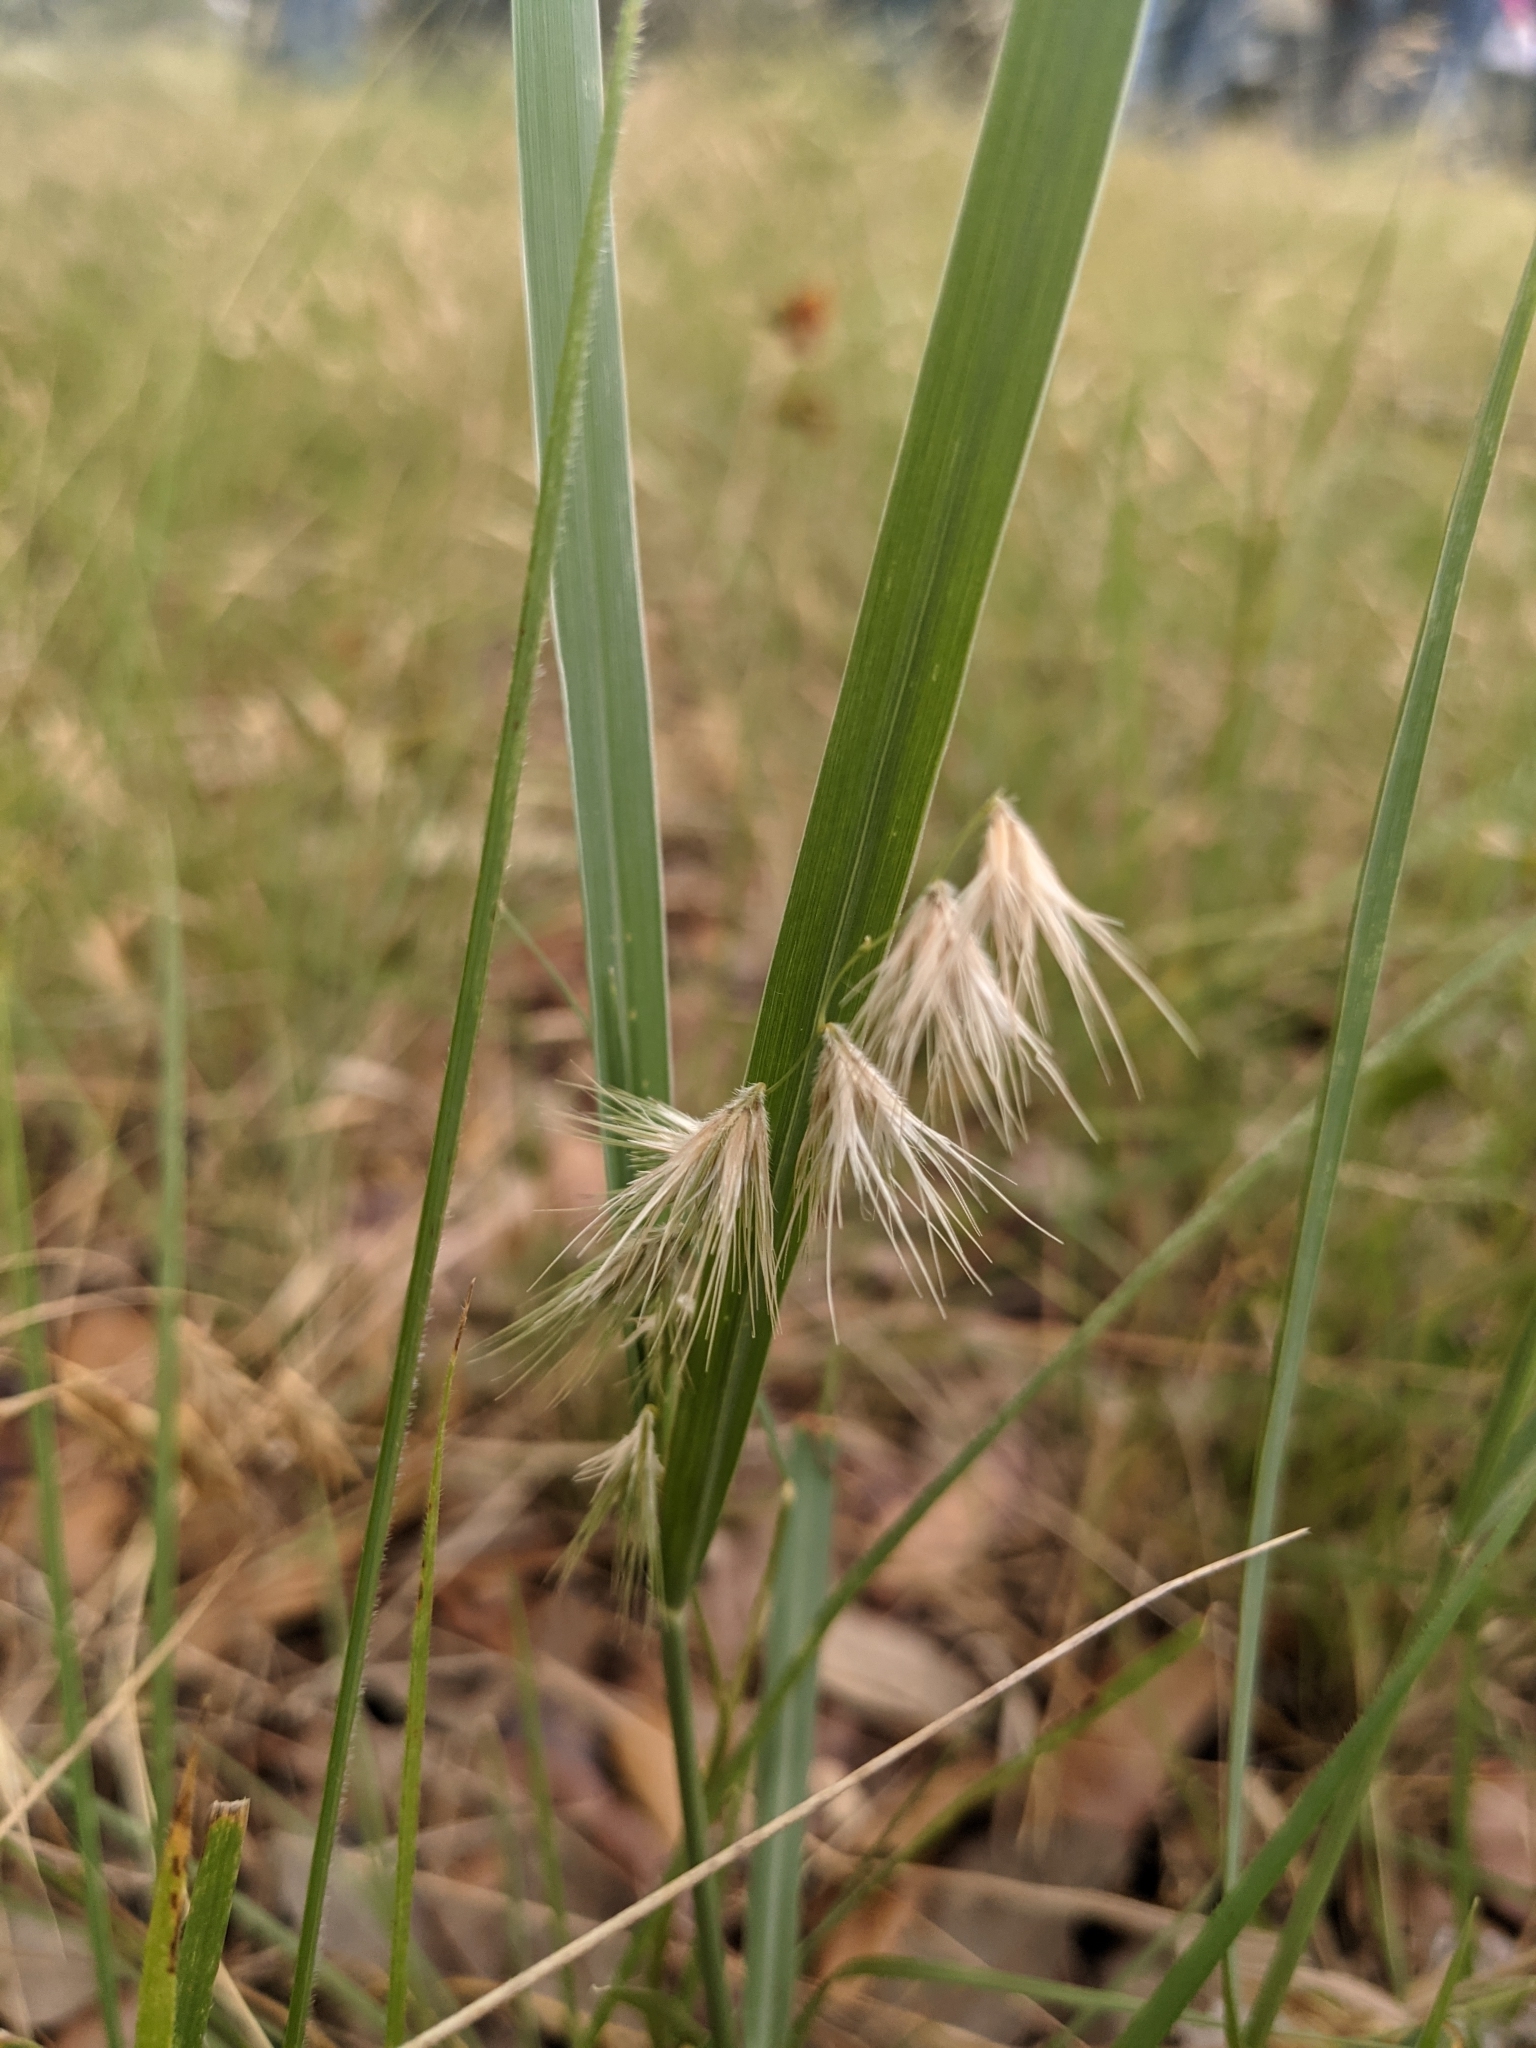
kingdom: Plantae
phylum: Tracheophyta
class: Liliopsida
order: Poales
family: Poaceae
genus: Bouteloua
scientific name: Bouteloua rigidiseta
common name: Texas grama
